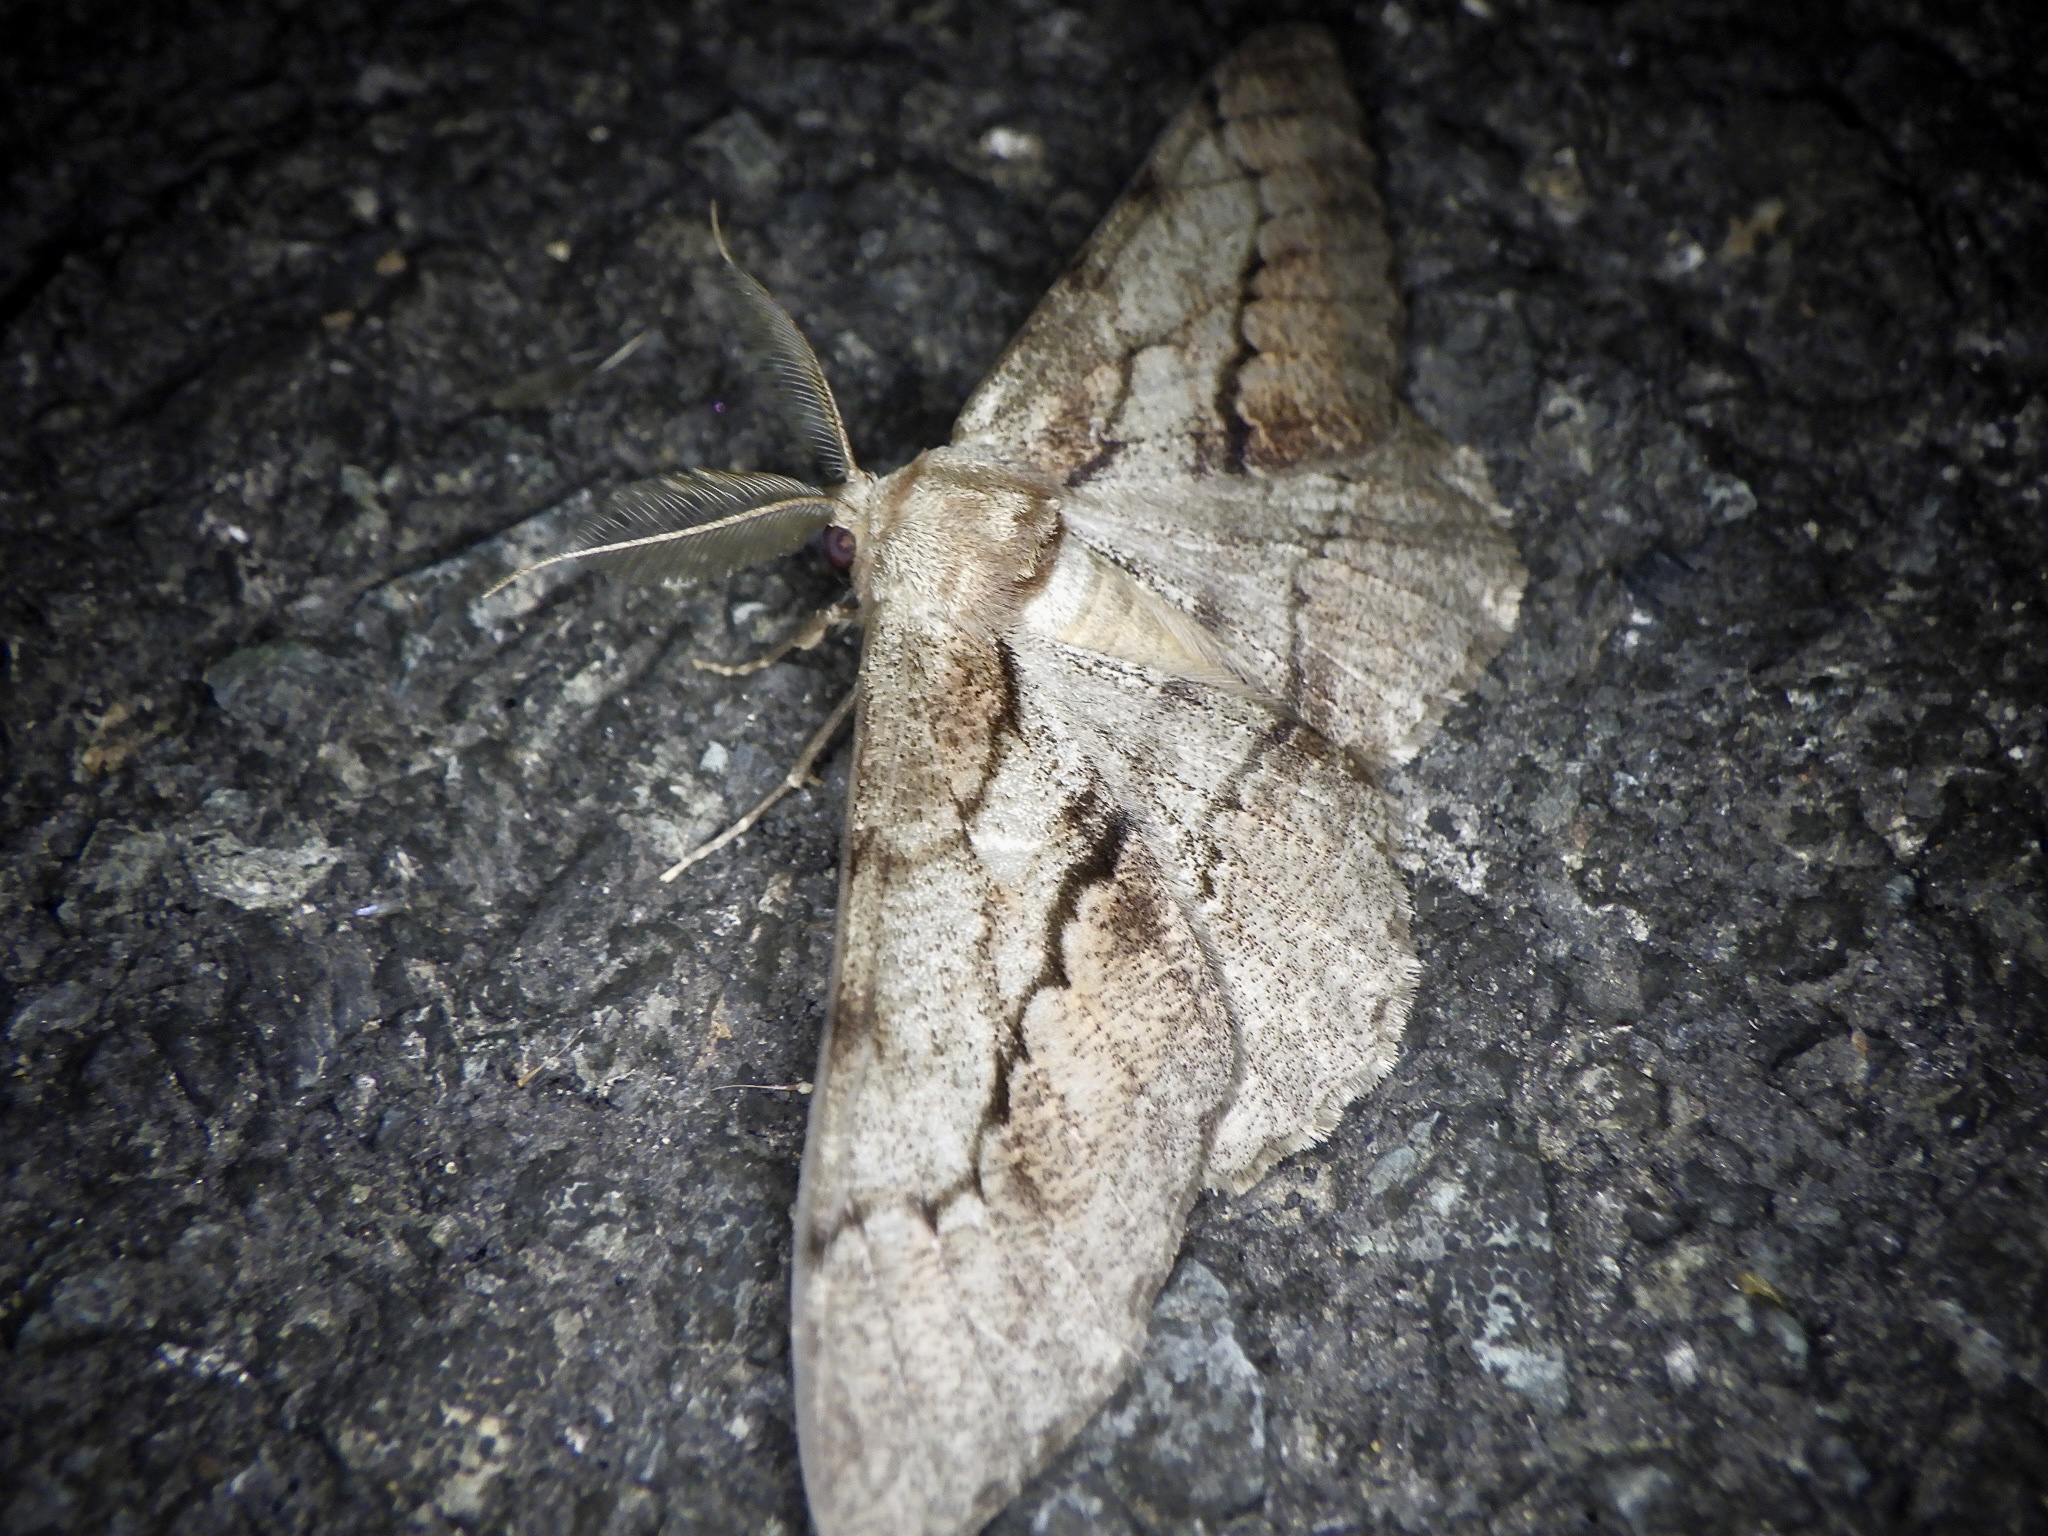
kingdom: Animalia
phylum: Arthropoda
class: Insecta
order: Lepidoptera
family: Geometridae
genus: Phthonosema
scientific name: Phthonosema tendinosaria
